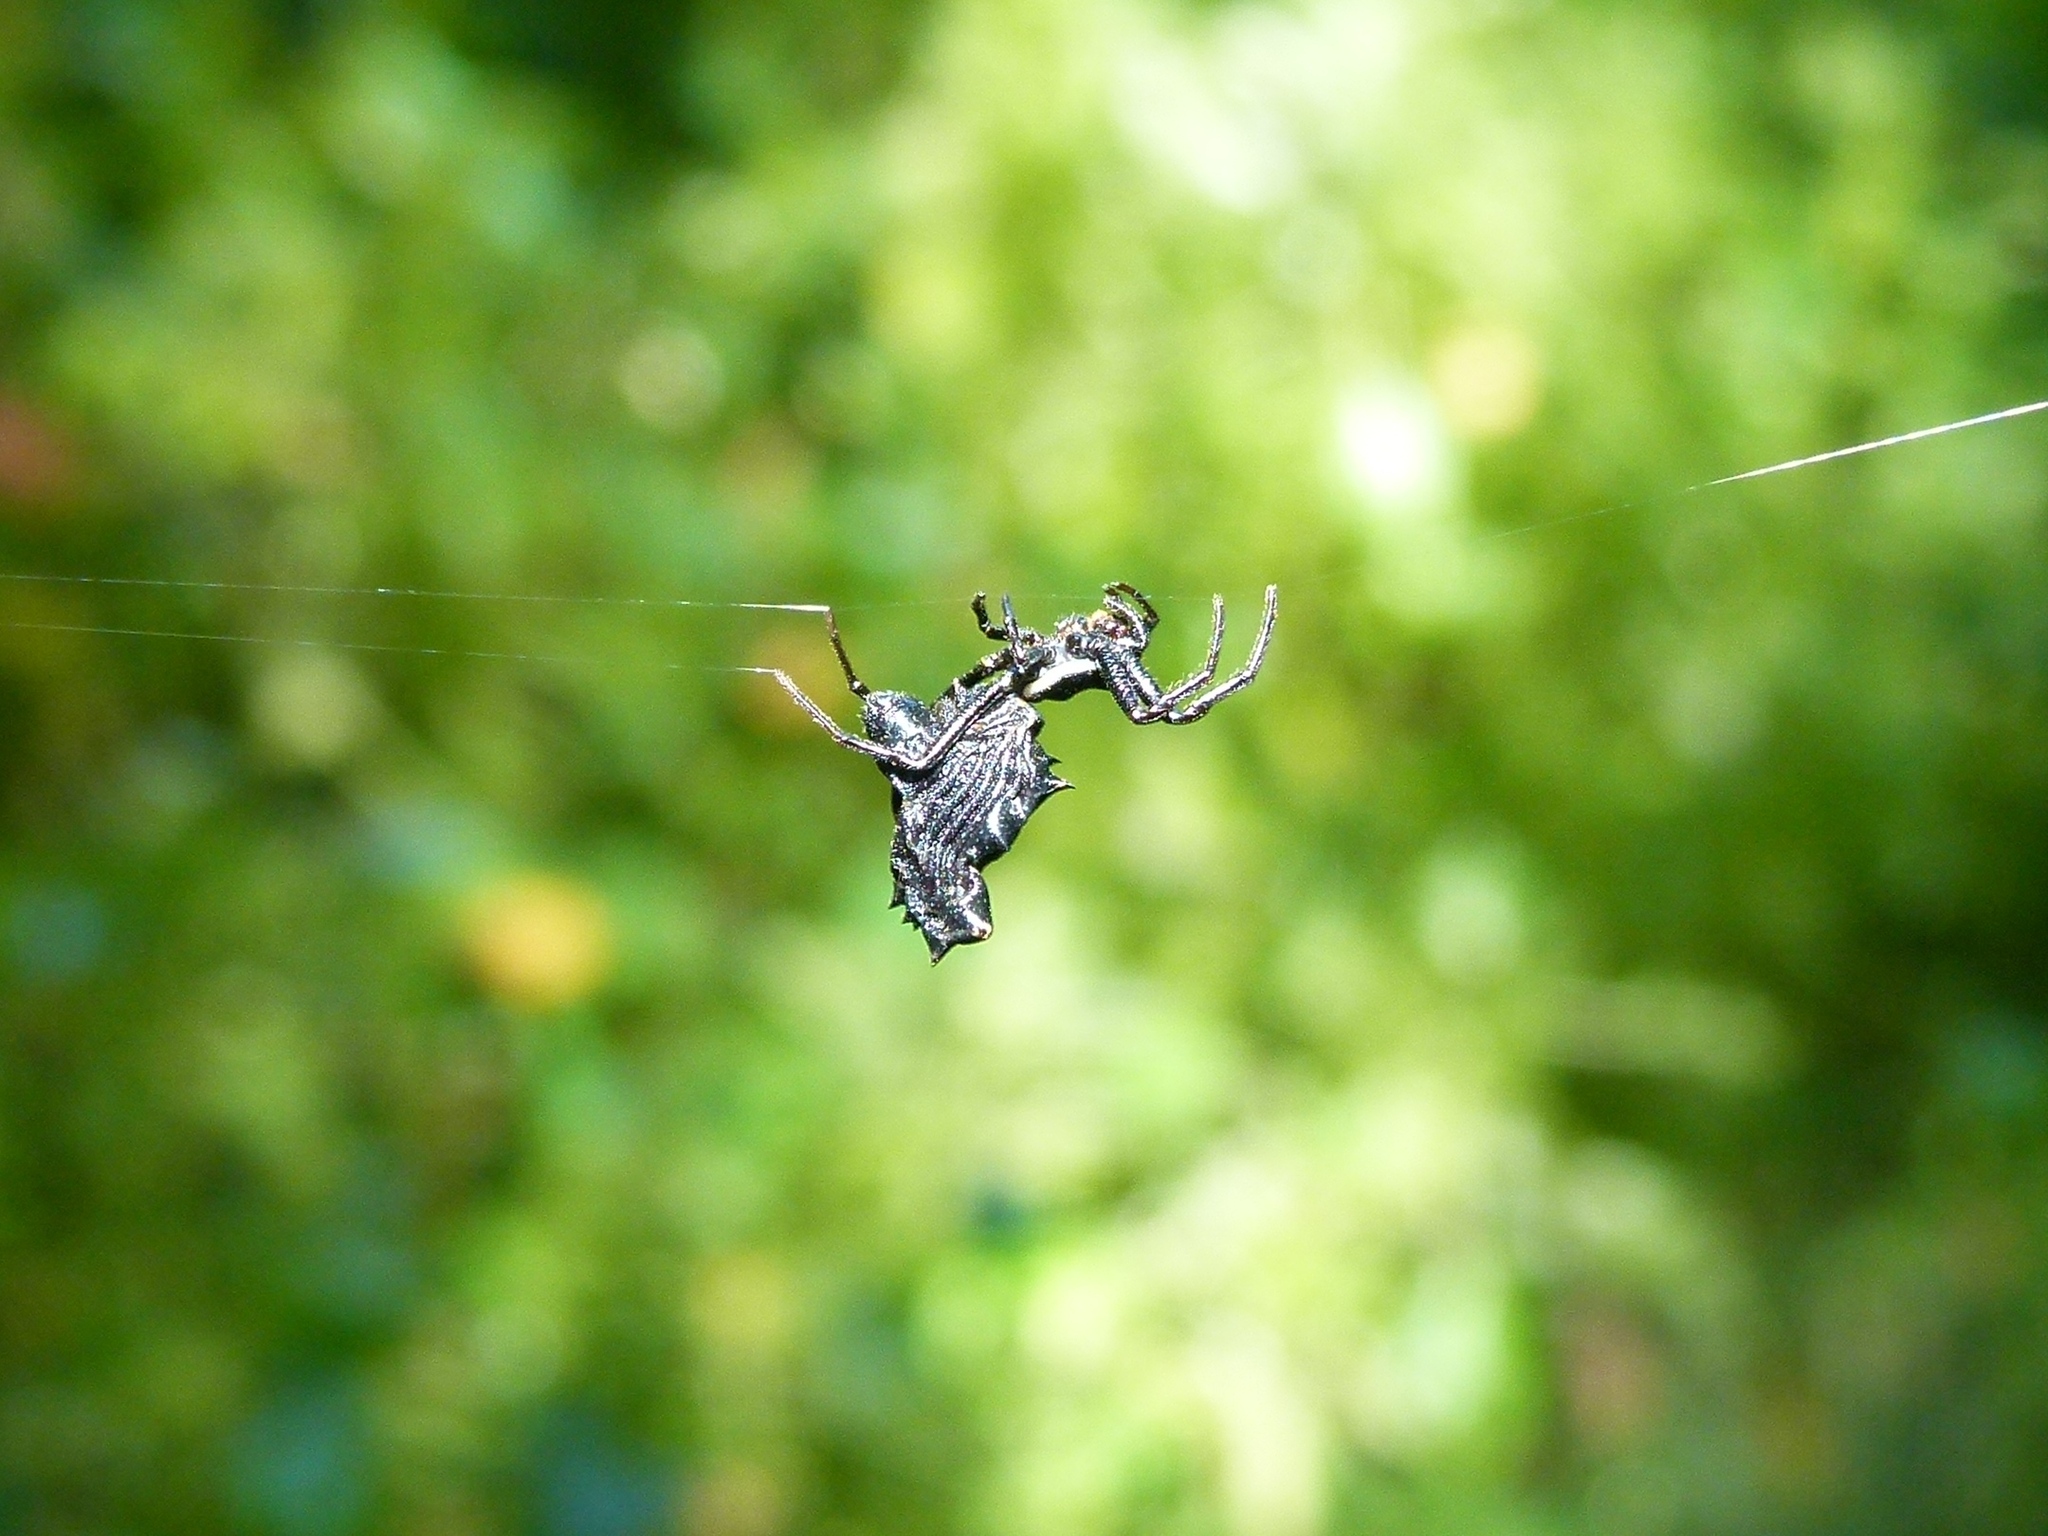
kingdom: Animalia
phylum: Arthropoda
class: Arachnida
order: Araneae
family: Araneidae
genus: Micrathena
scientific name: Micrathena gracilis
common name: Orb weavers
